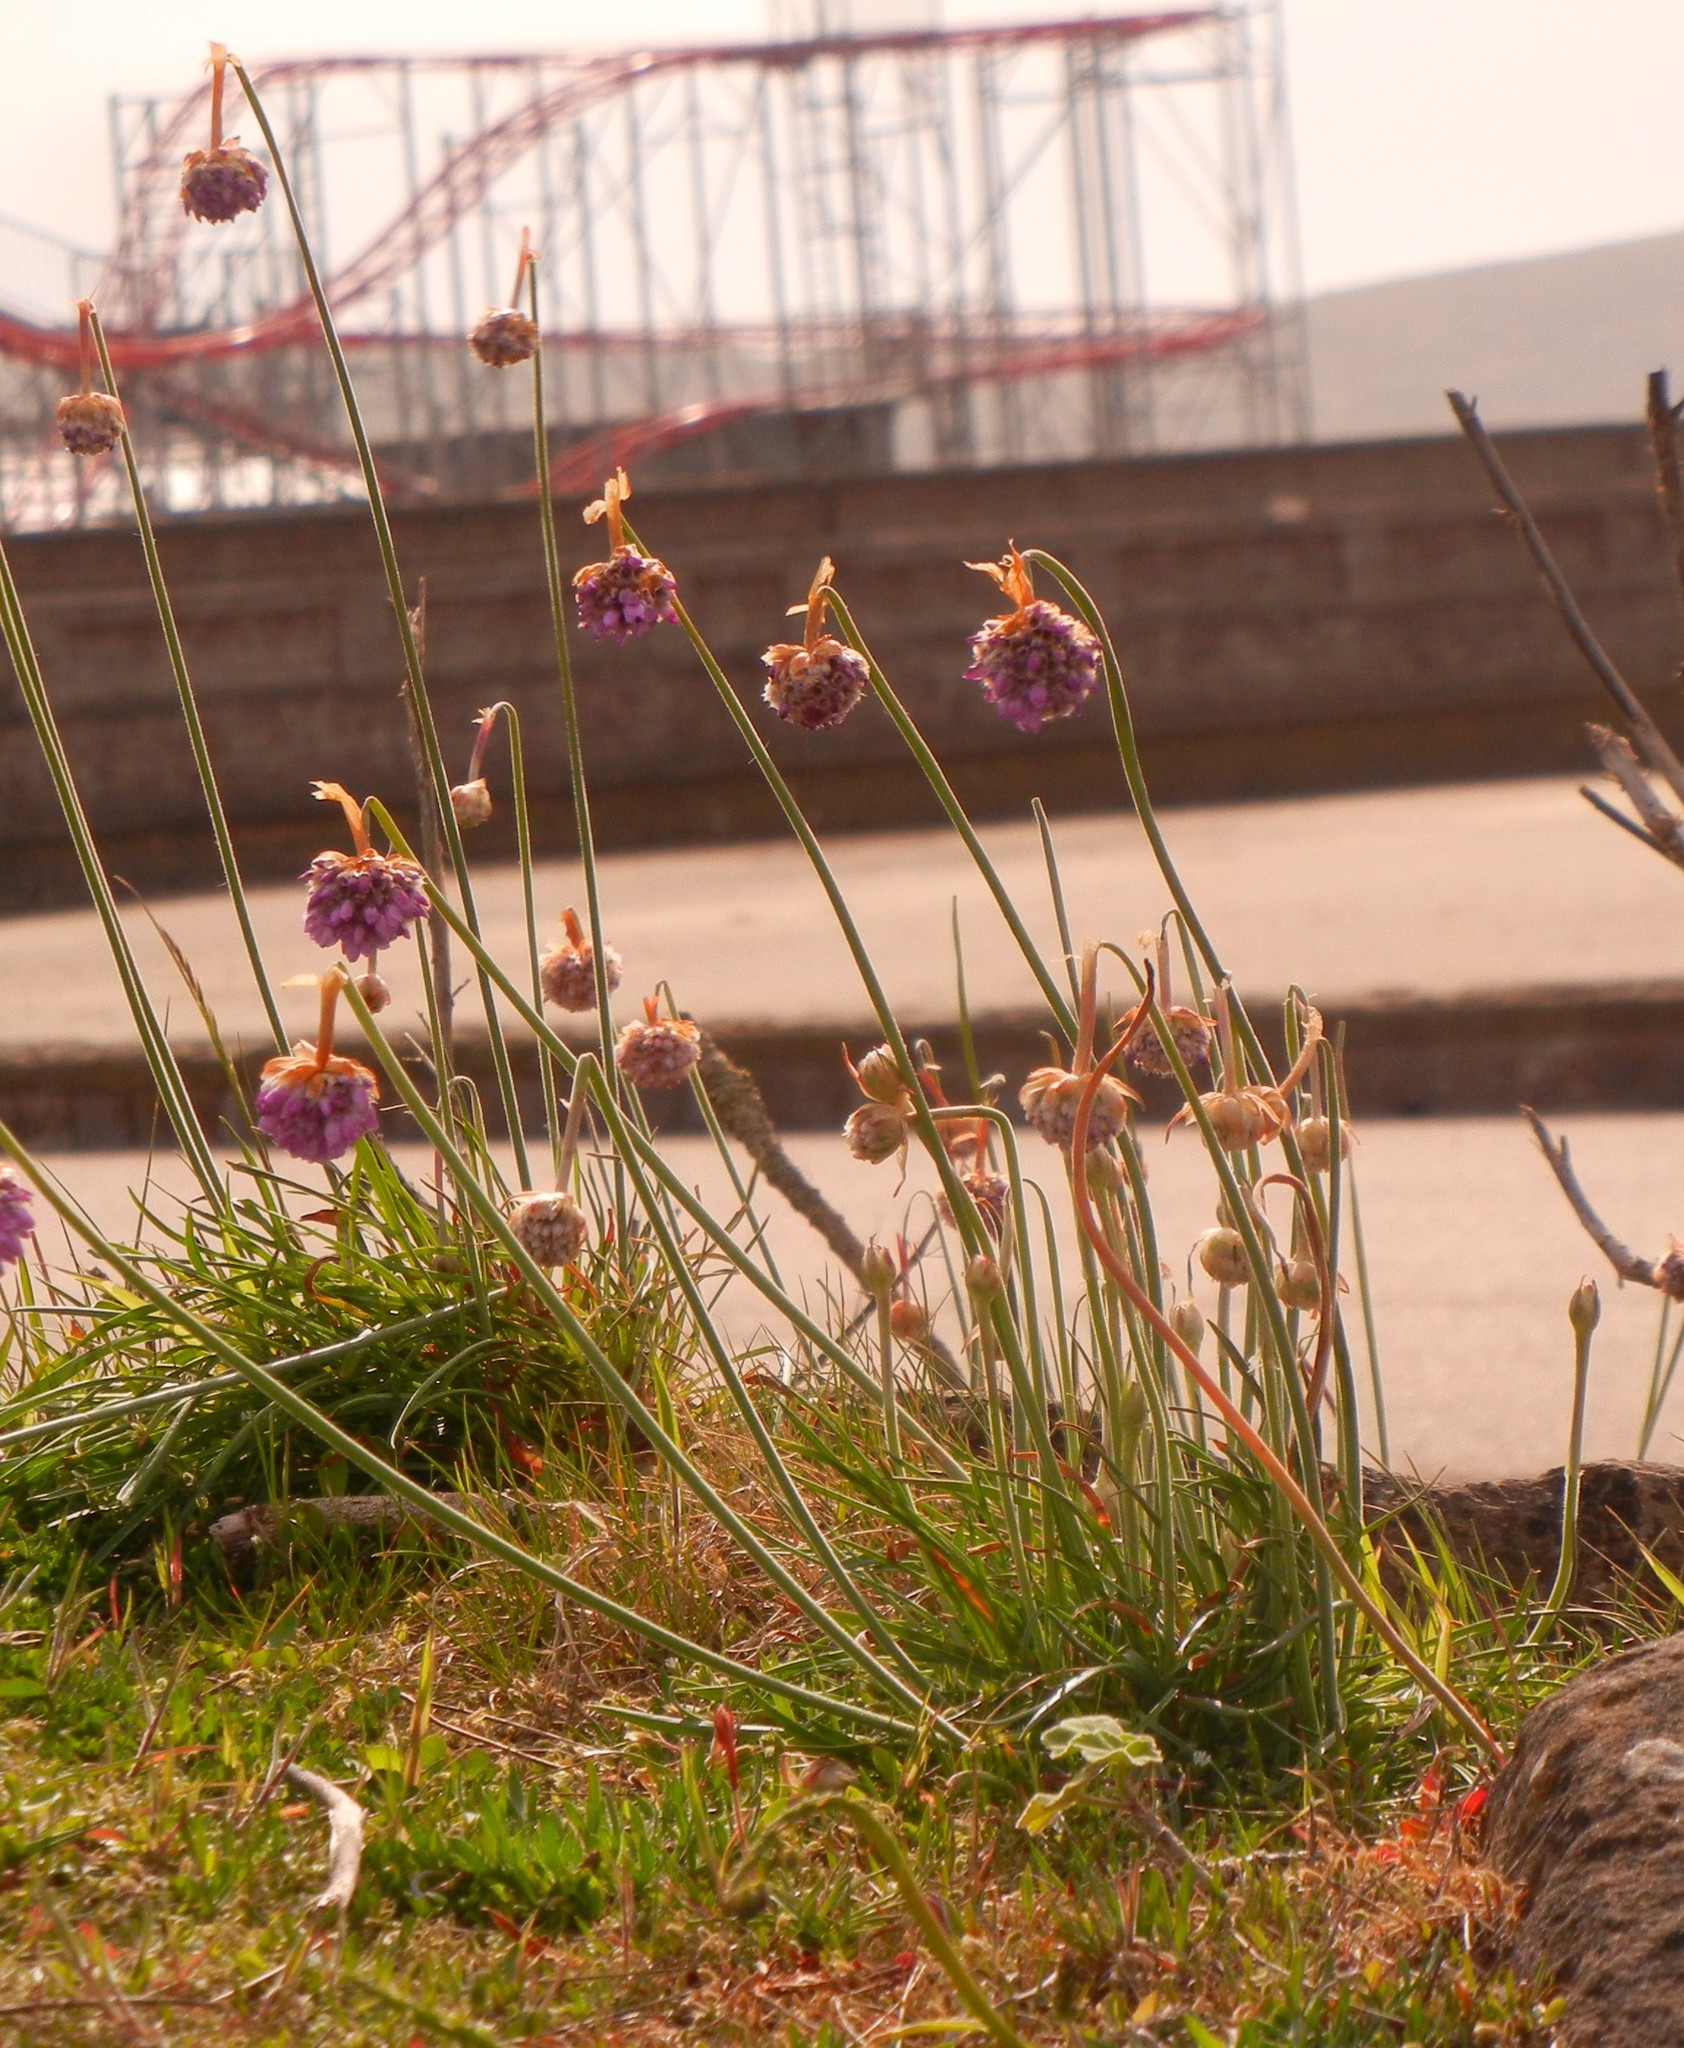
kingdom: Plantae
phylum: Tracheophyta
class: Magnoliopsida
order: Caryophyllales
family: Plumbaginaceae
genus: Armeria
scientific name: Armeria maritima
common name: Thrift
